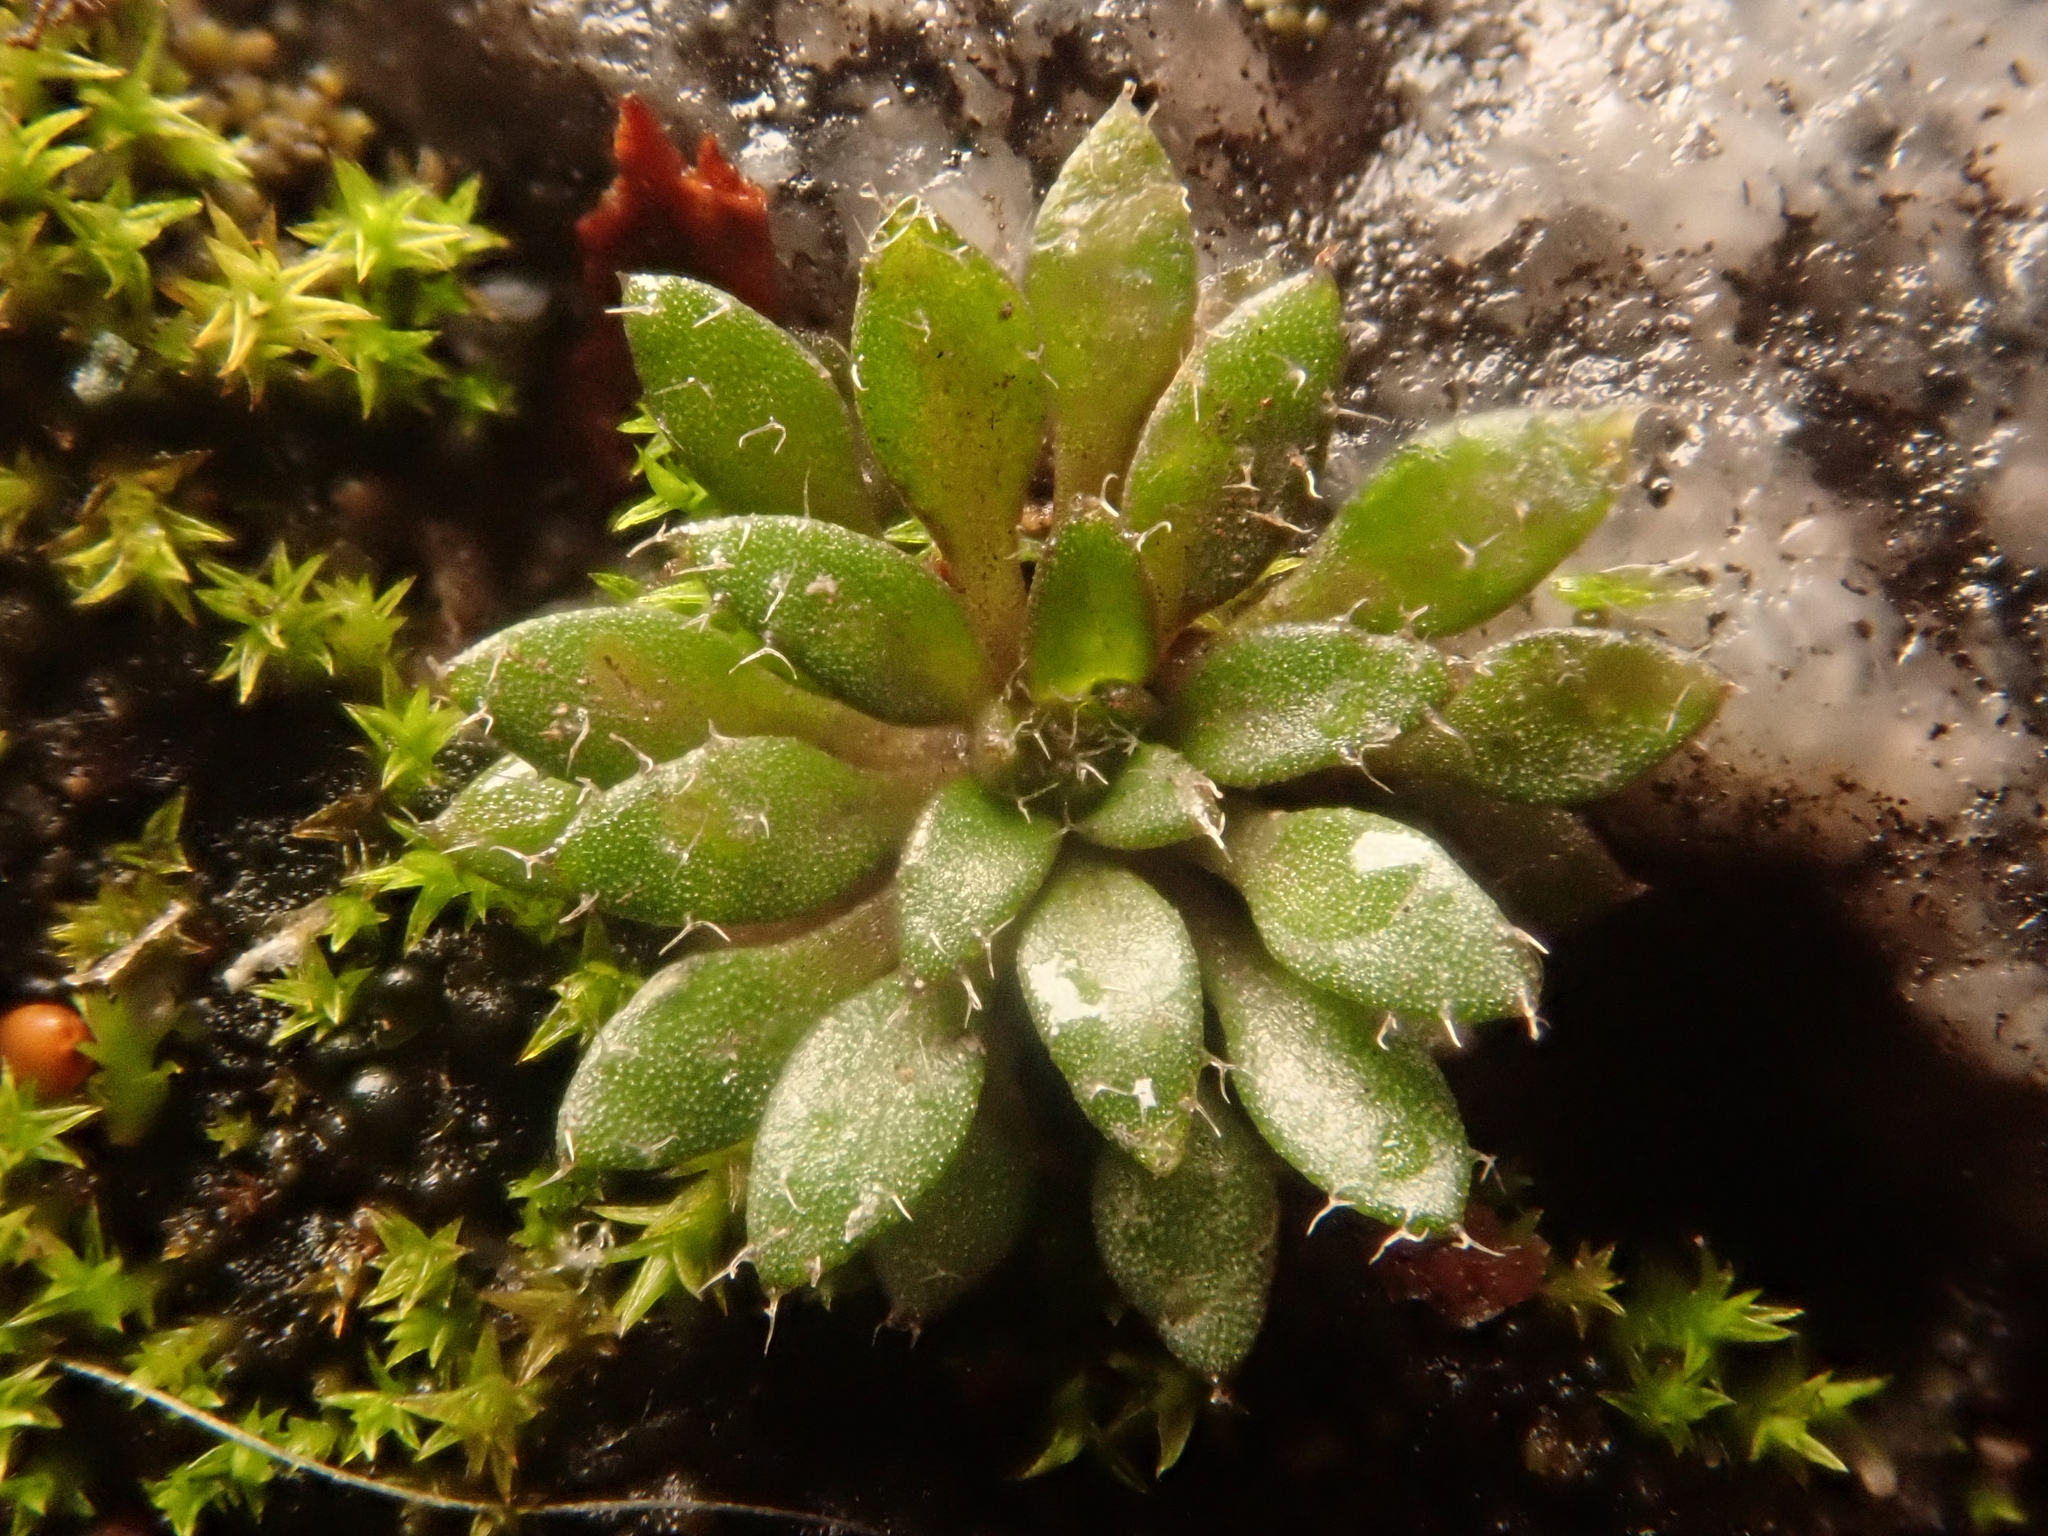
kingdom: Plantae
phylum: Tracheophyta
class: Magnoliopsida
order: Brassicales
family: Brassicaceae
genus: Draba
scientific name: Draba verna
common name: Spring draba
